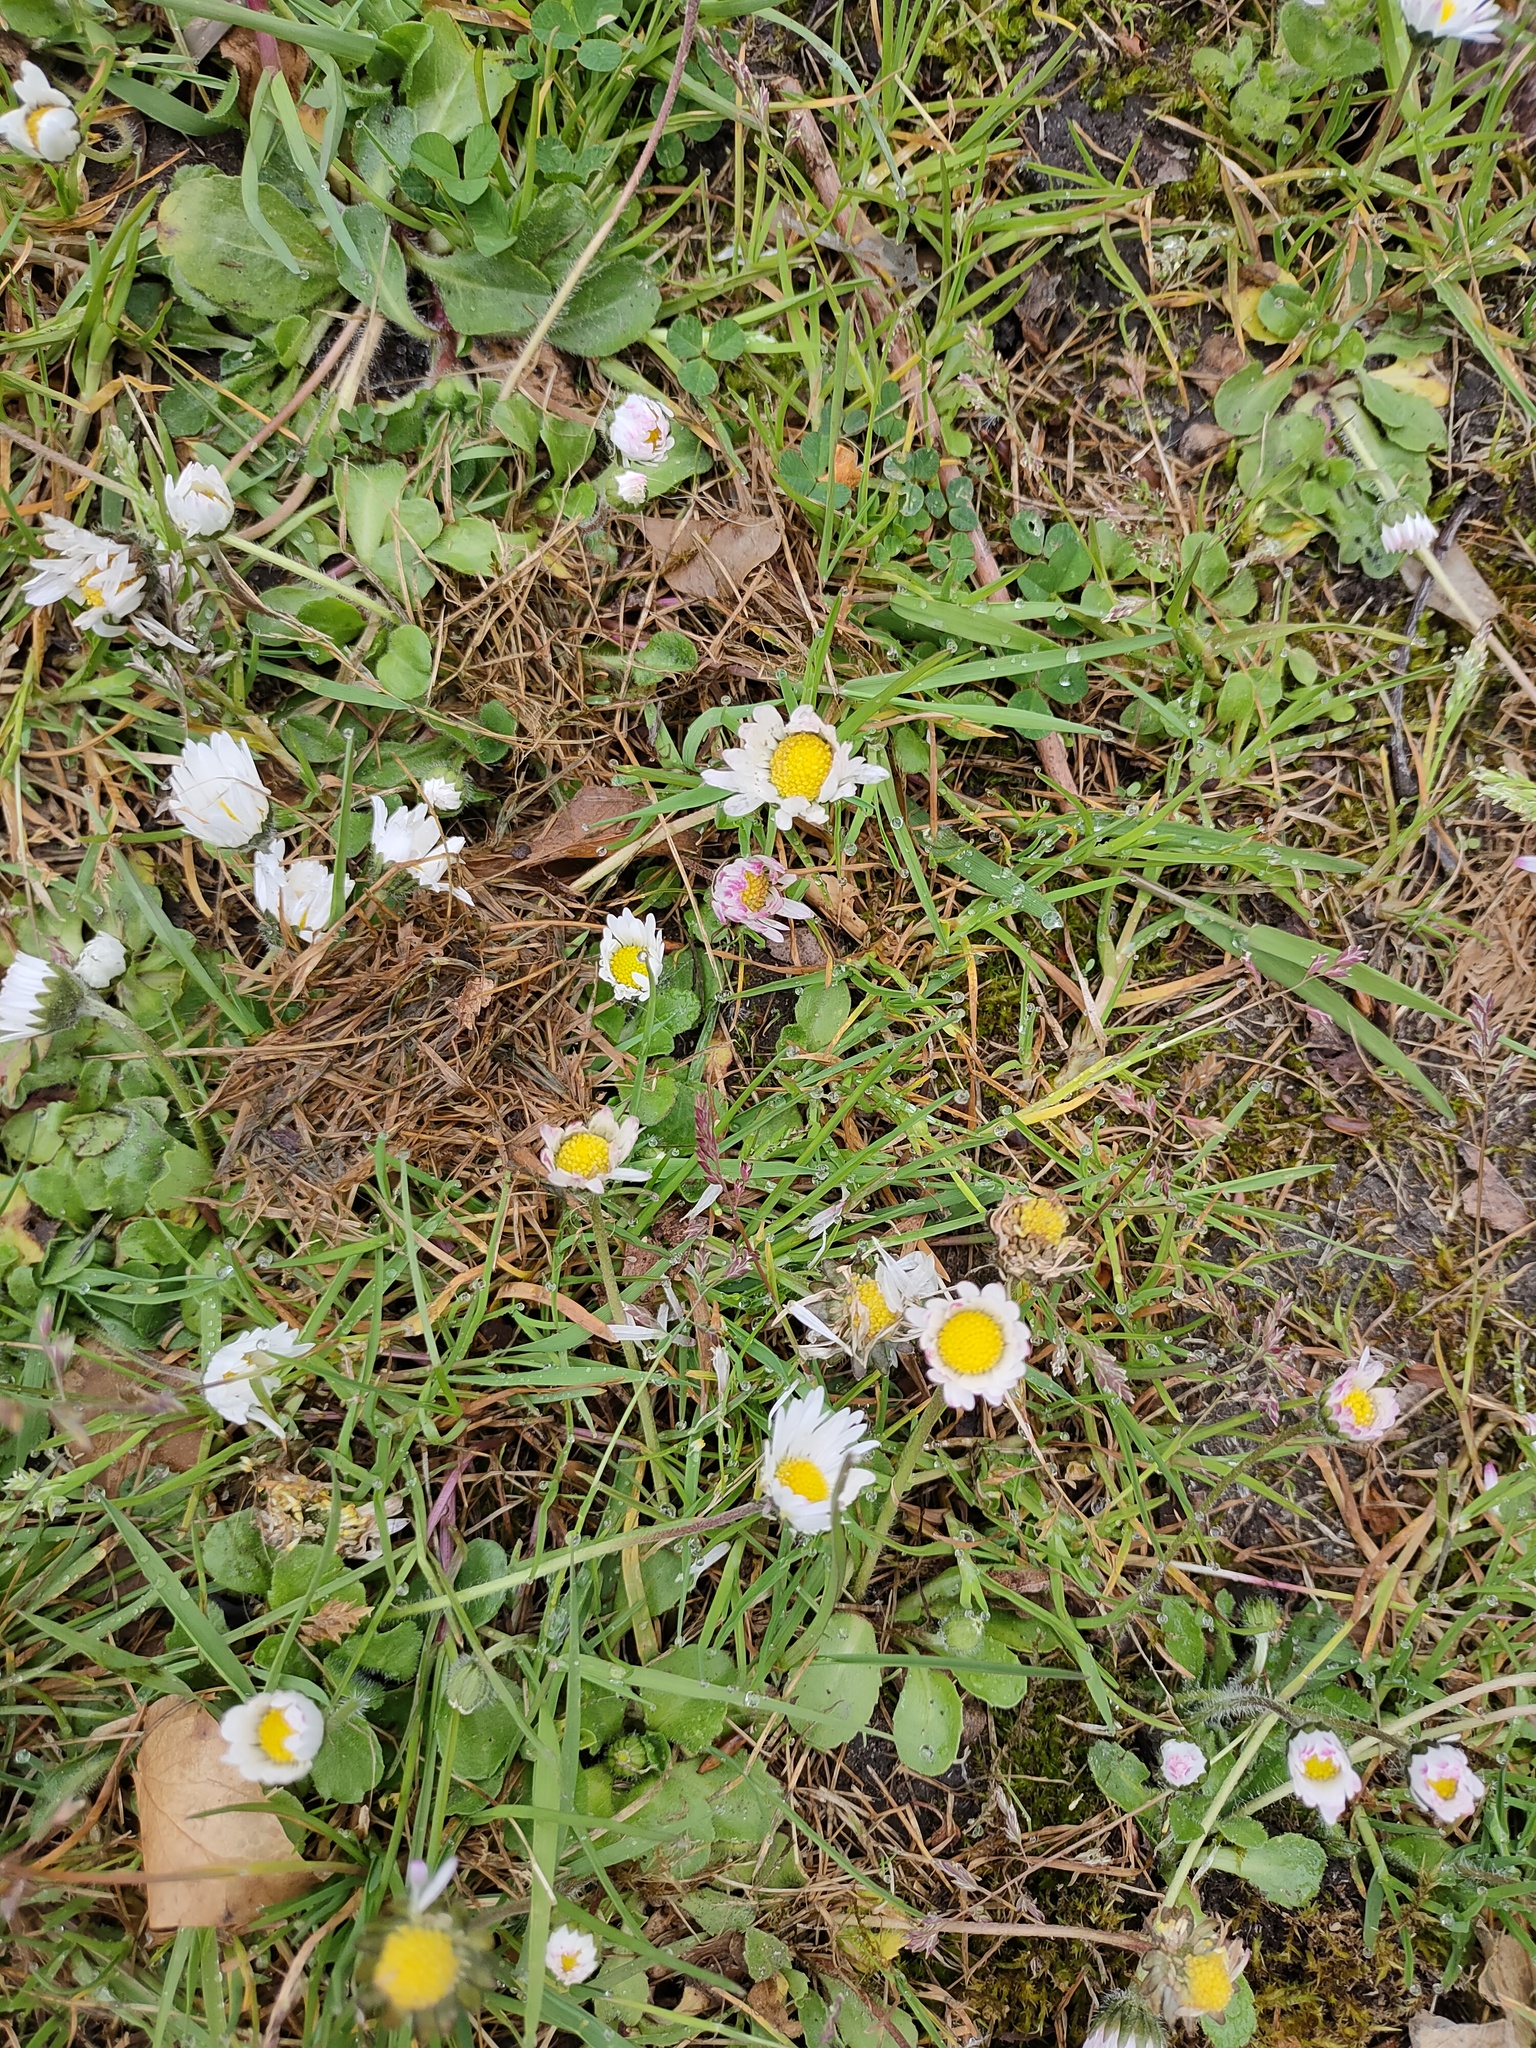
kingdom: Plantae
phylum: Tracheophyta
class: Magnoliopsida
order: Asterales
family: Asteraceae
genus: Bellis
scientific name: Bellis perennis
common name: Lawndaisy
